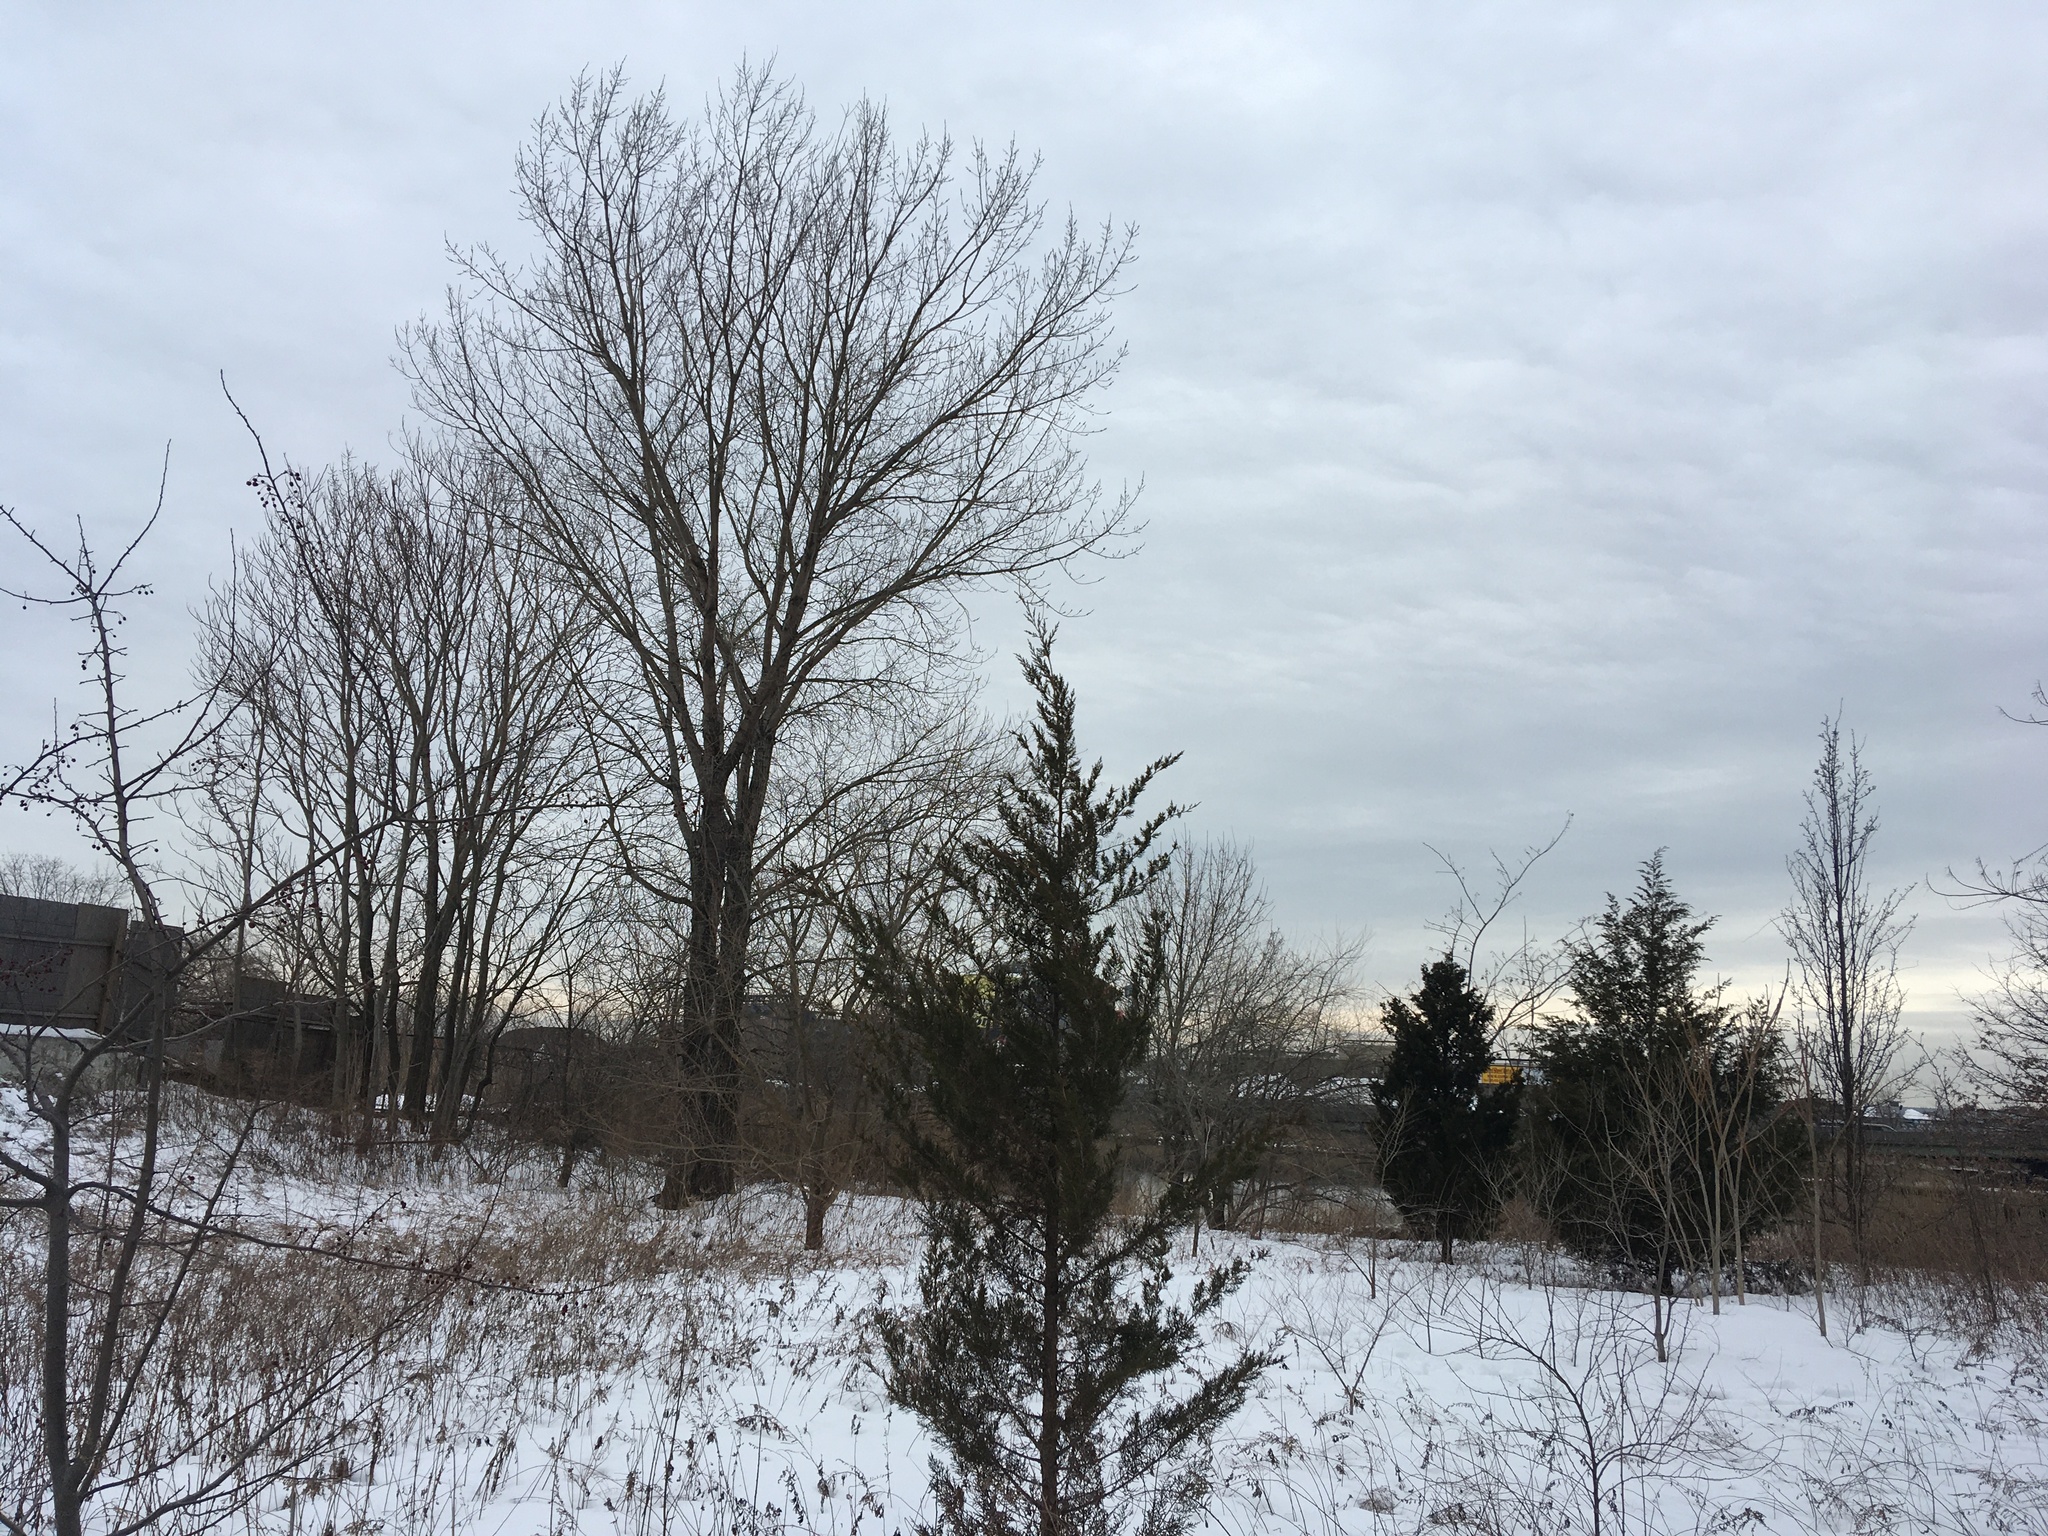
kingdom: Plantae
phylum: Tracheophyta
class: Pinopsida
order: Pinales
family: Cupressaceae
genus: Juniperus
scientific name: Juniperus virginiana
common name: Red juniper
